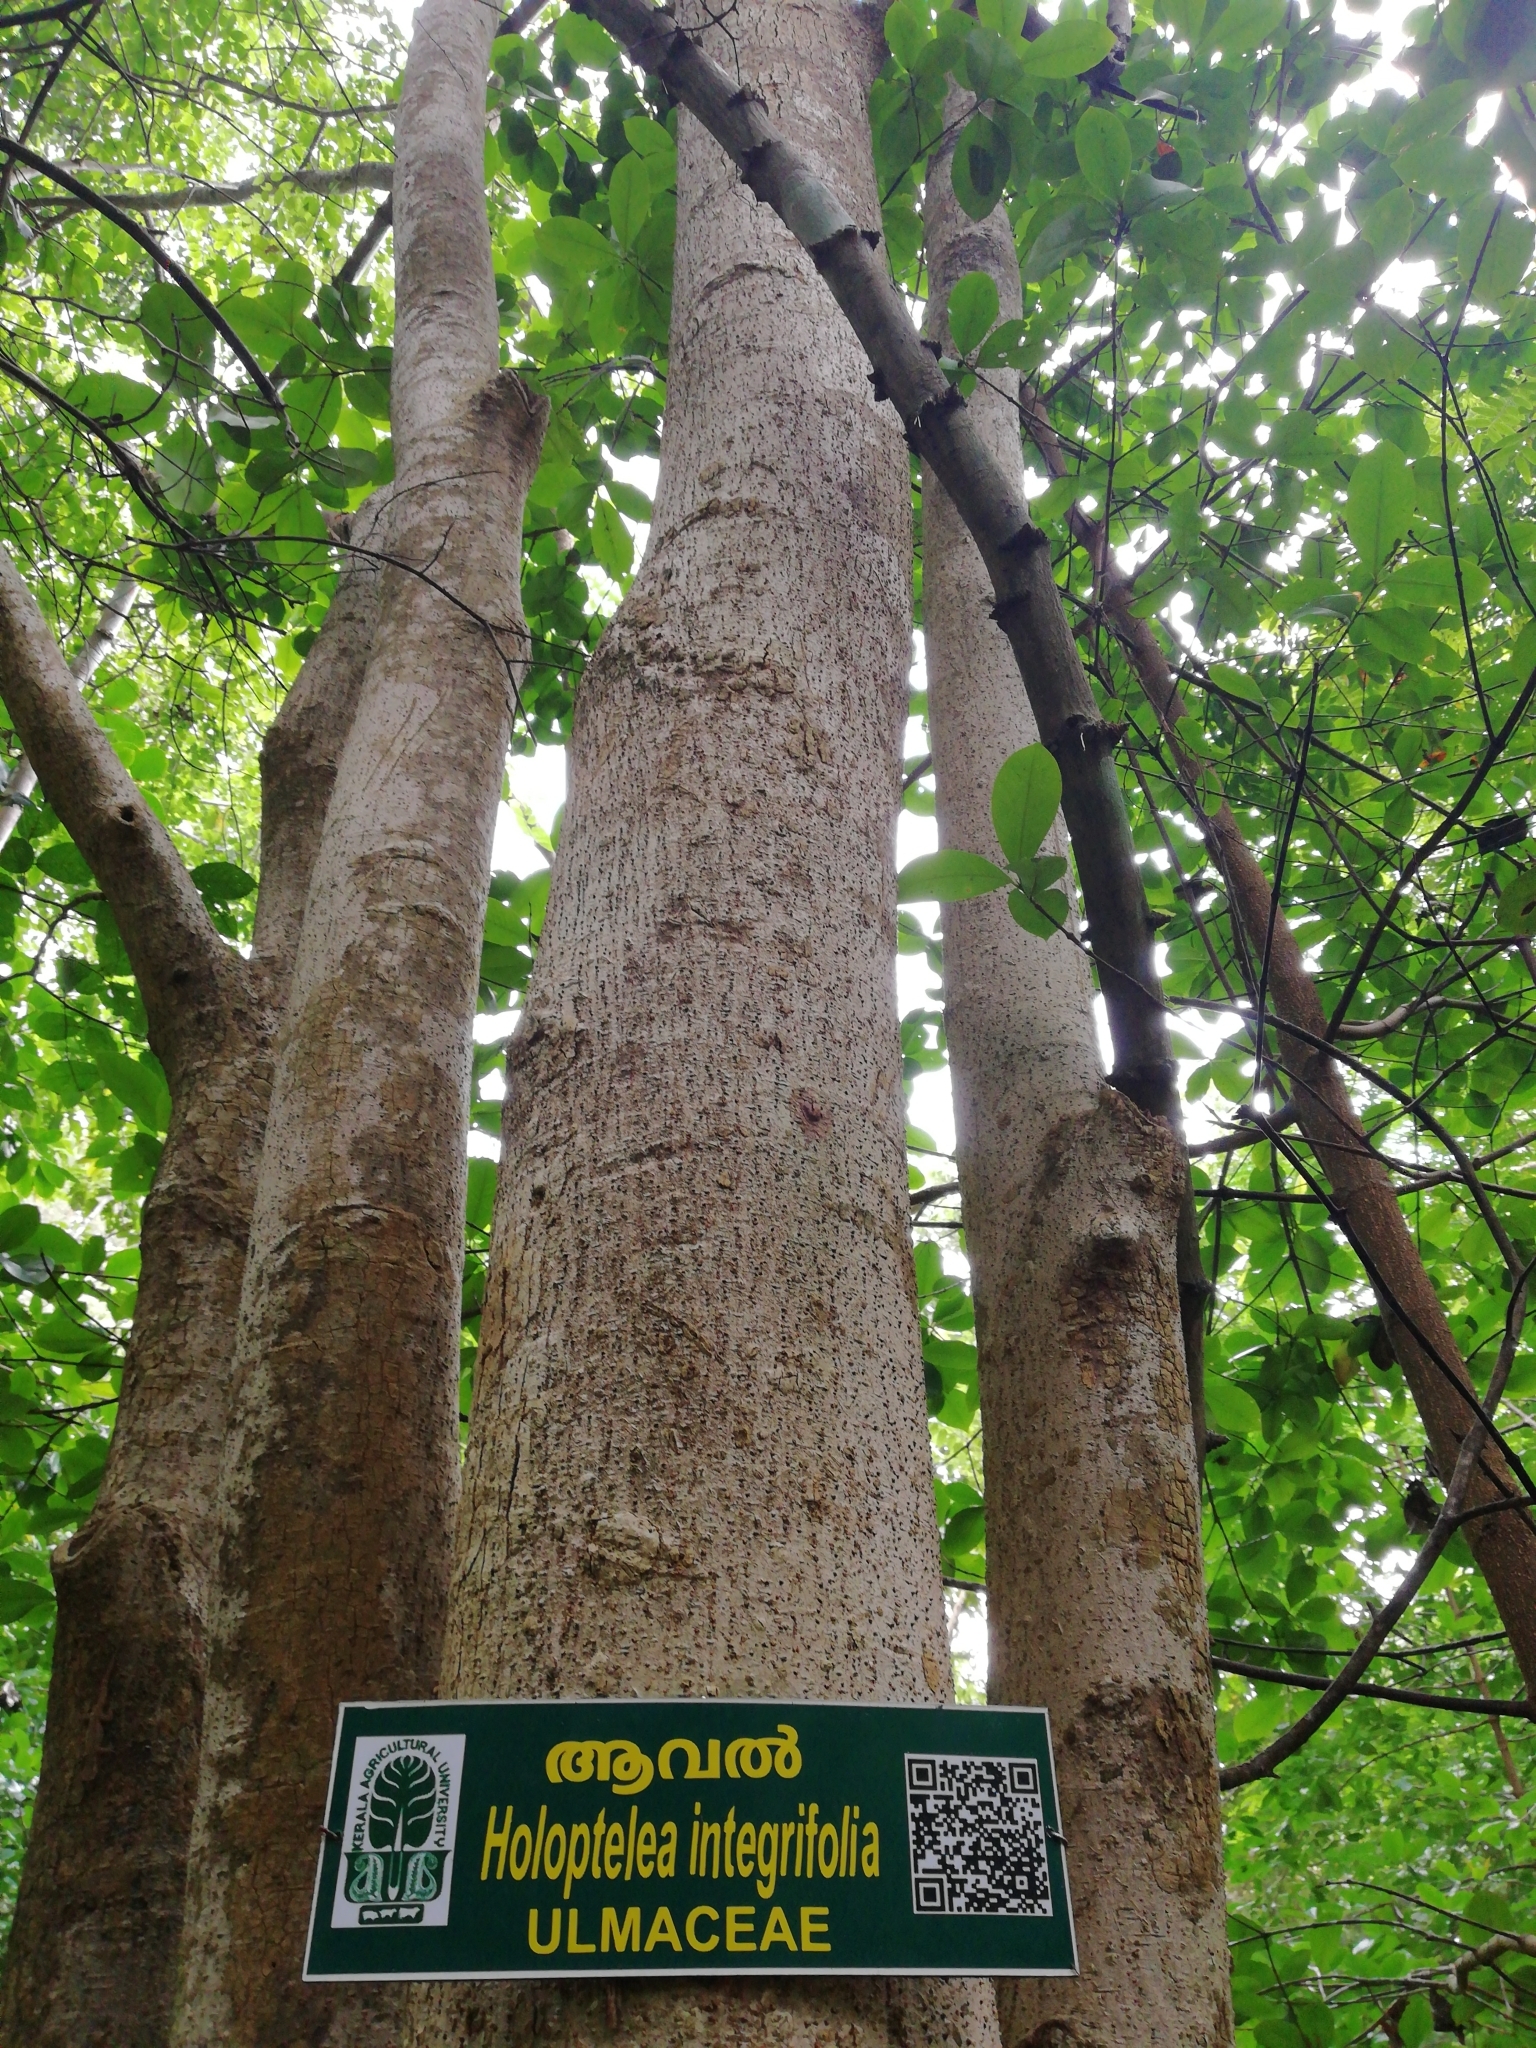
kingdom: Plantae
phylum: Tracheophyta
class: Magnoliopsida
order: Rosales
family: Ulmaceae
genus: Holoptelea
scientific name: Holoptelea integrifolia
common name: Indian-elm
